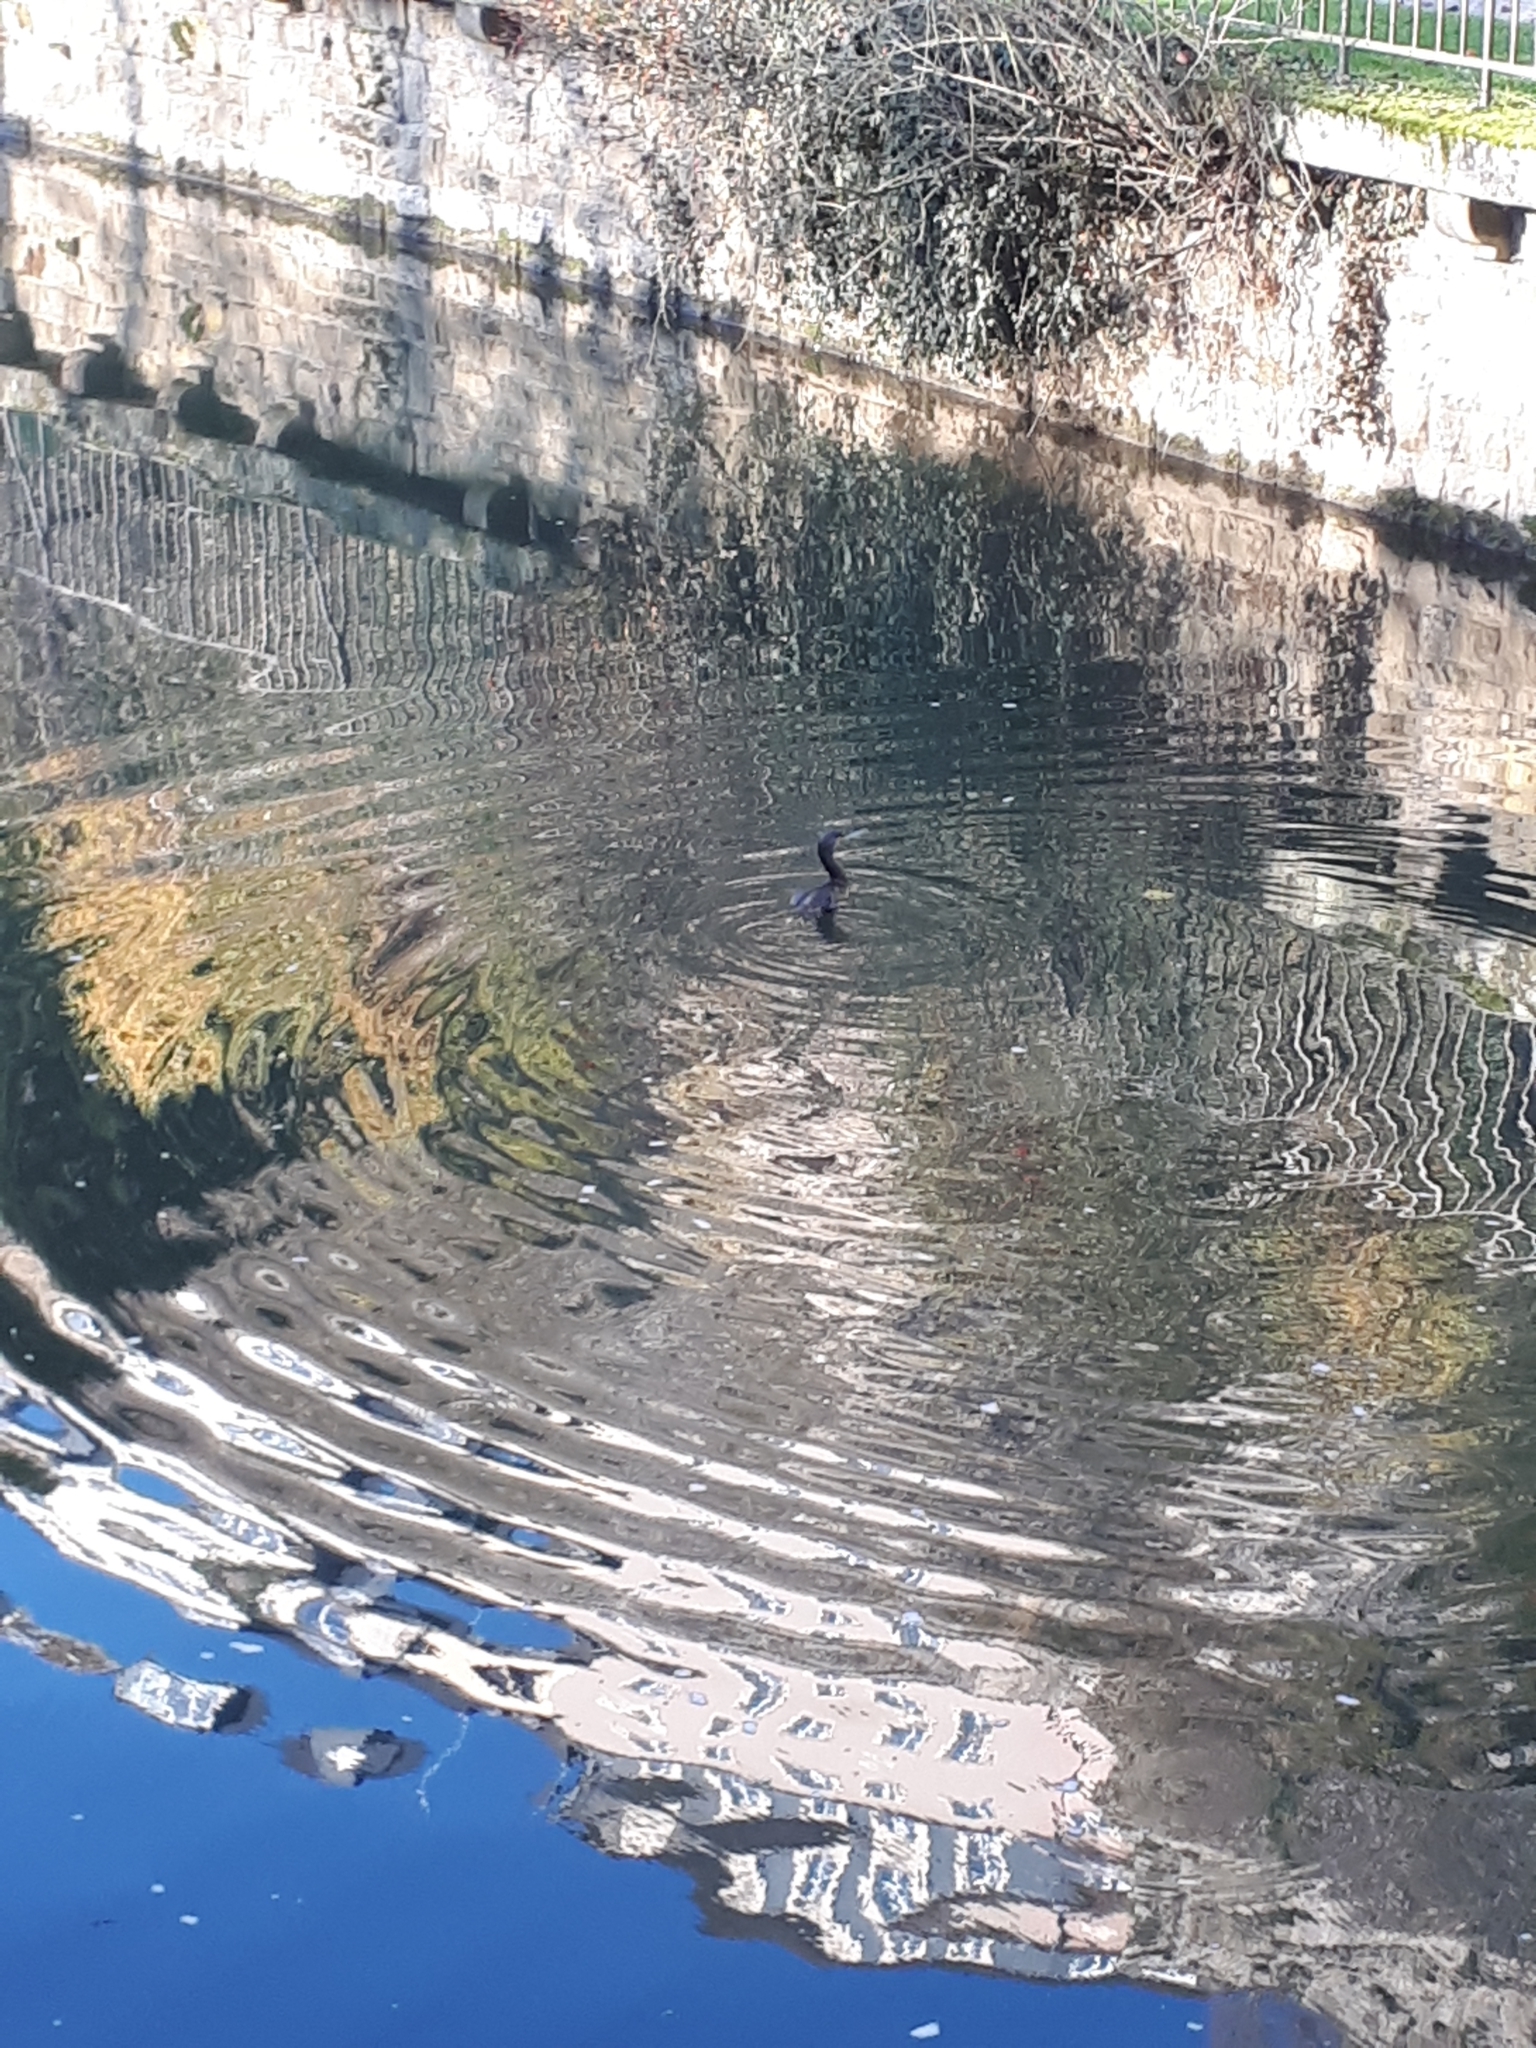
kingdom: Animalia
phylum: Chordata
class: Aves
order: Suliformes
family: Phalacrocoracidae
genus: Phalacrocorax
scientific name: Phalacrocorax carbo
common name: Great cormorant
